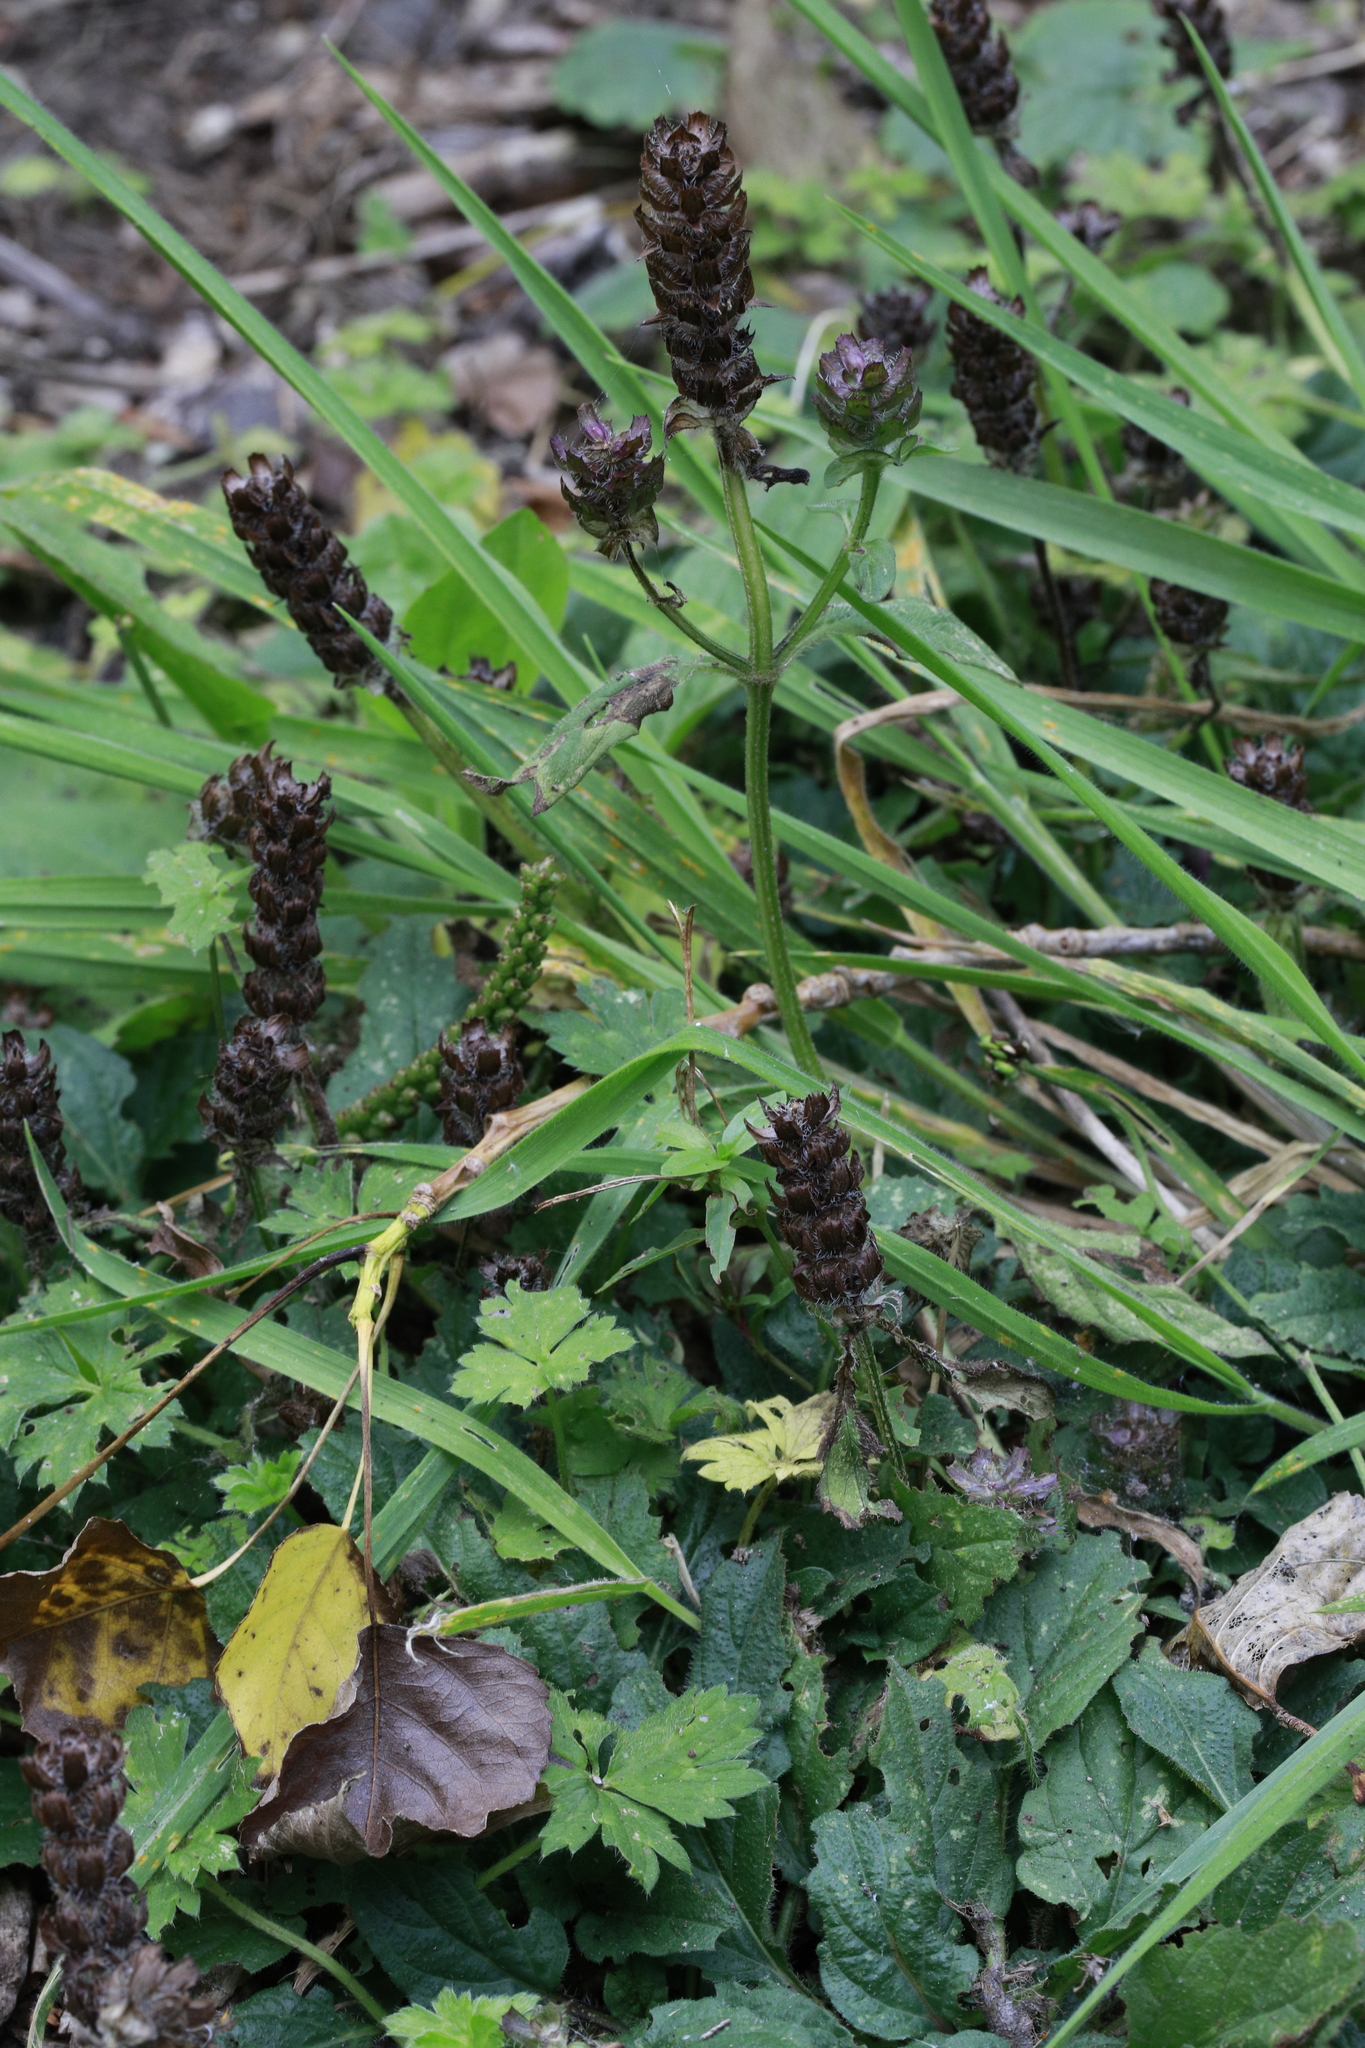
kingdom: Plantae
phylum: Tracheophyta
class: Magnoliopsida
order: Lamiales
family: Lamiaceae
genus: Prunella
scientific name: Prunella vulgaris
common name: Heal-all
